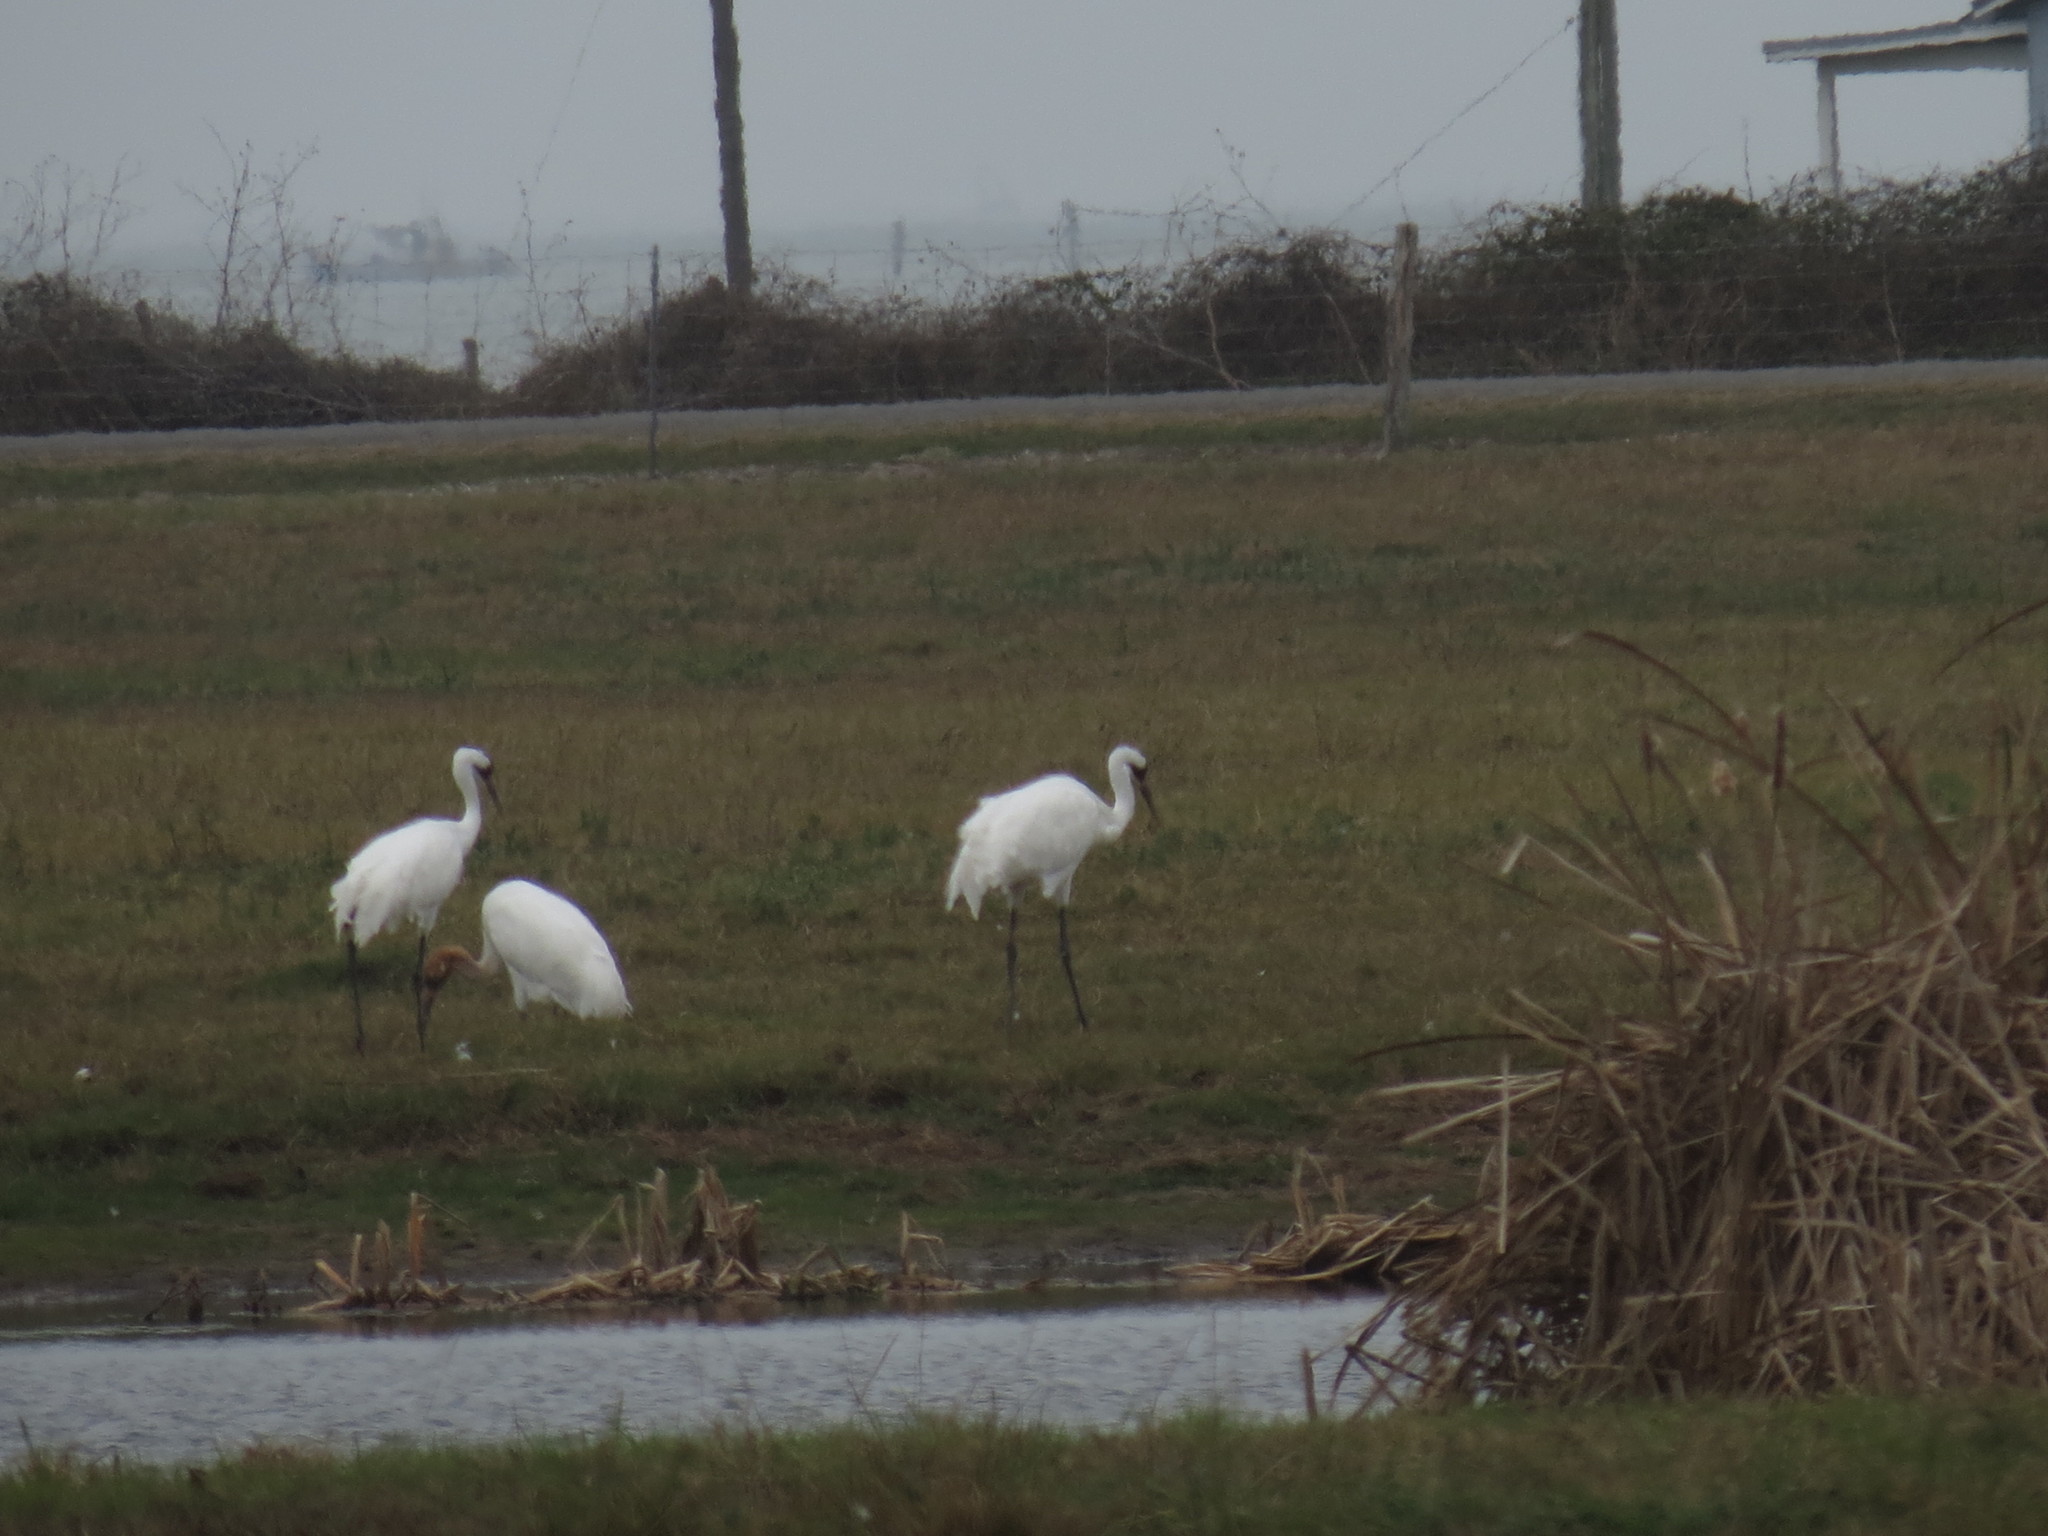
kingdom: Animalia
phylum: Chordata
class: Aves
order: Gruiformes
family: Gruidae
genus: Grus
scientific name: Grus americana
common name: Whooping crane
